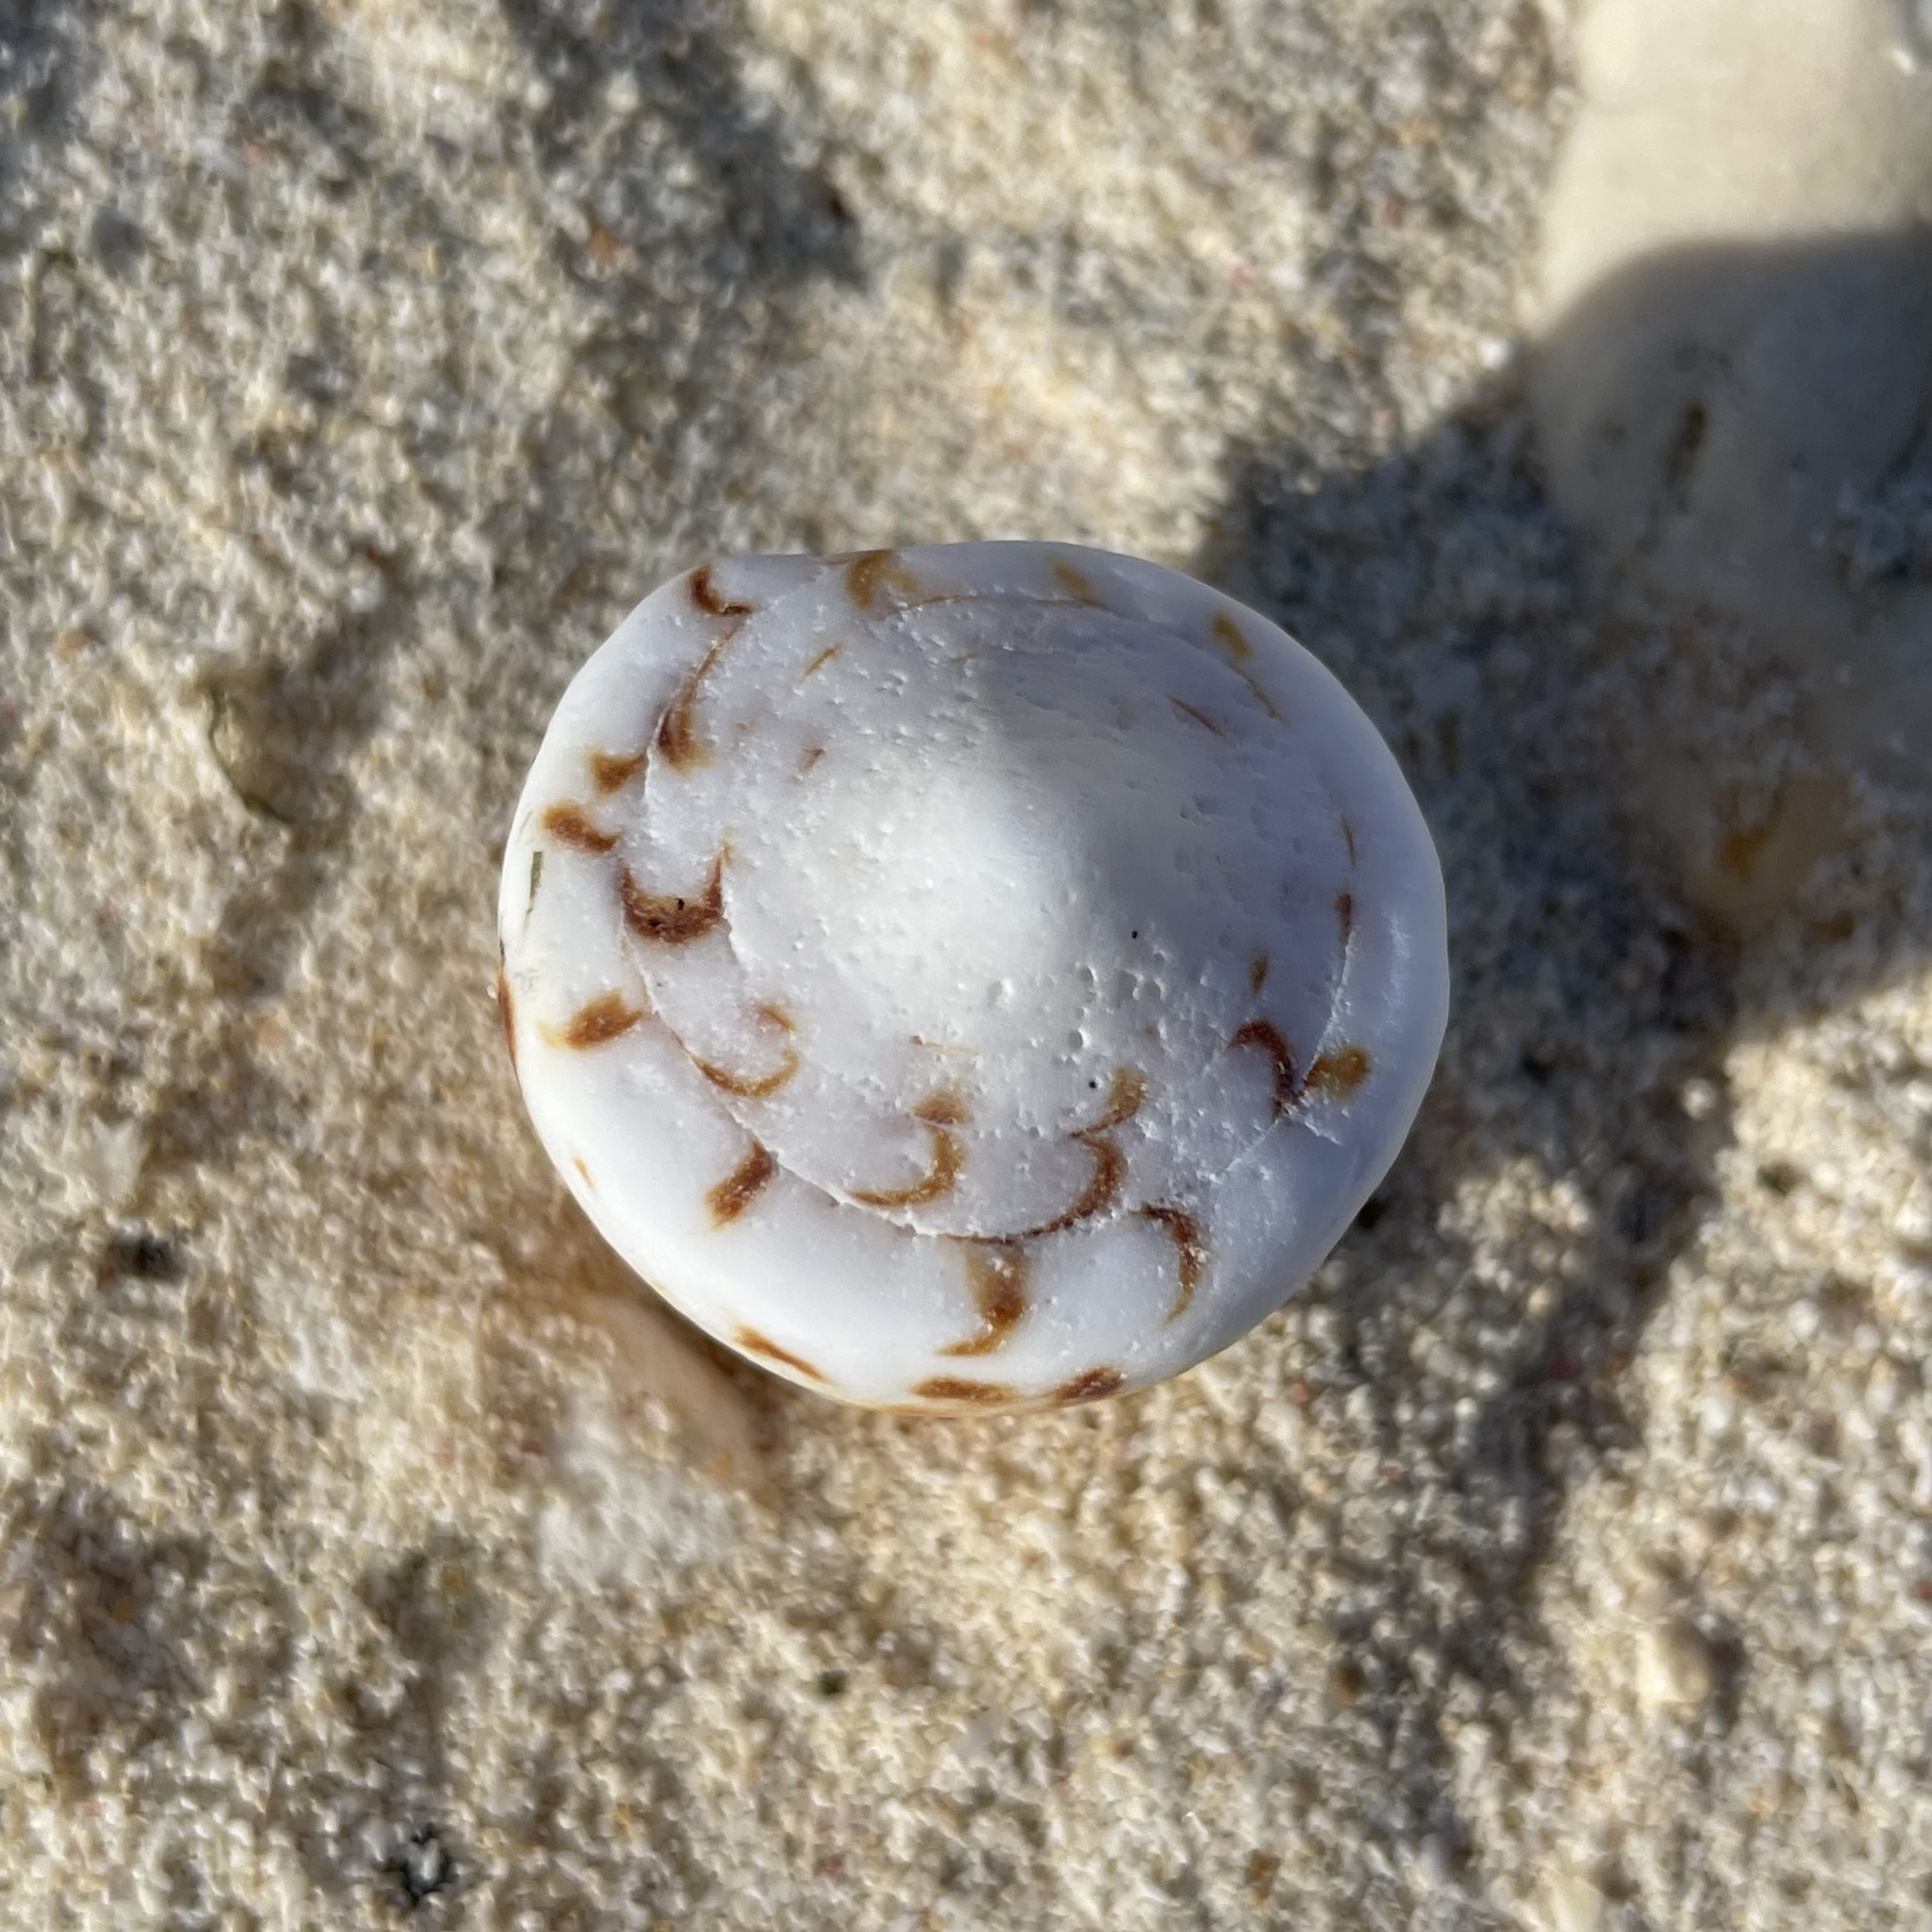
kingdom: Animalia
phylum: Mollusca
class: Gastropoda
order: Neogastropoda
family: Conidae
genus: Conus
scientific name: Conus generalis
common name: General cone
